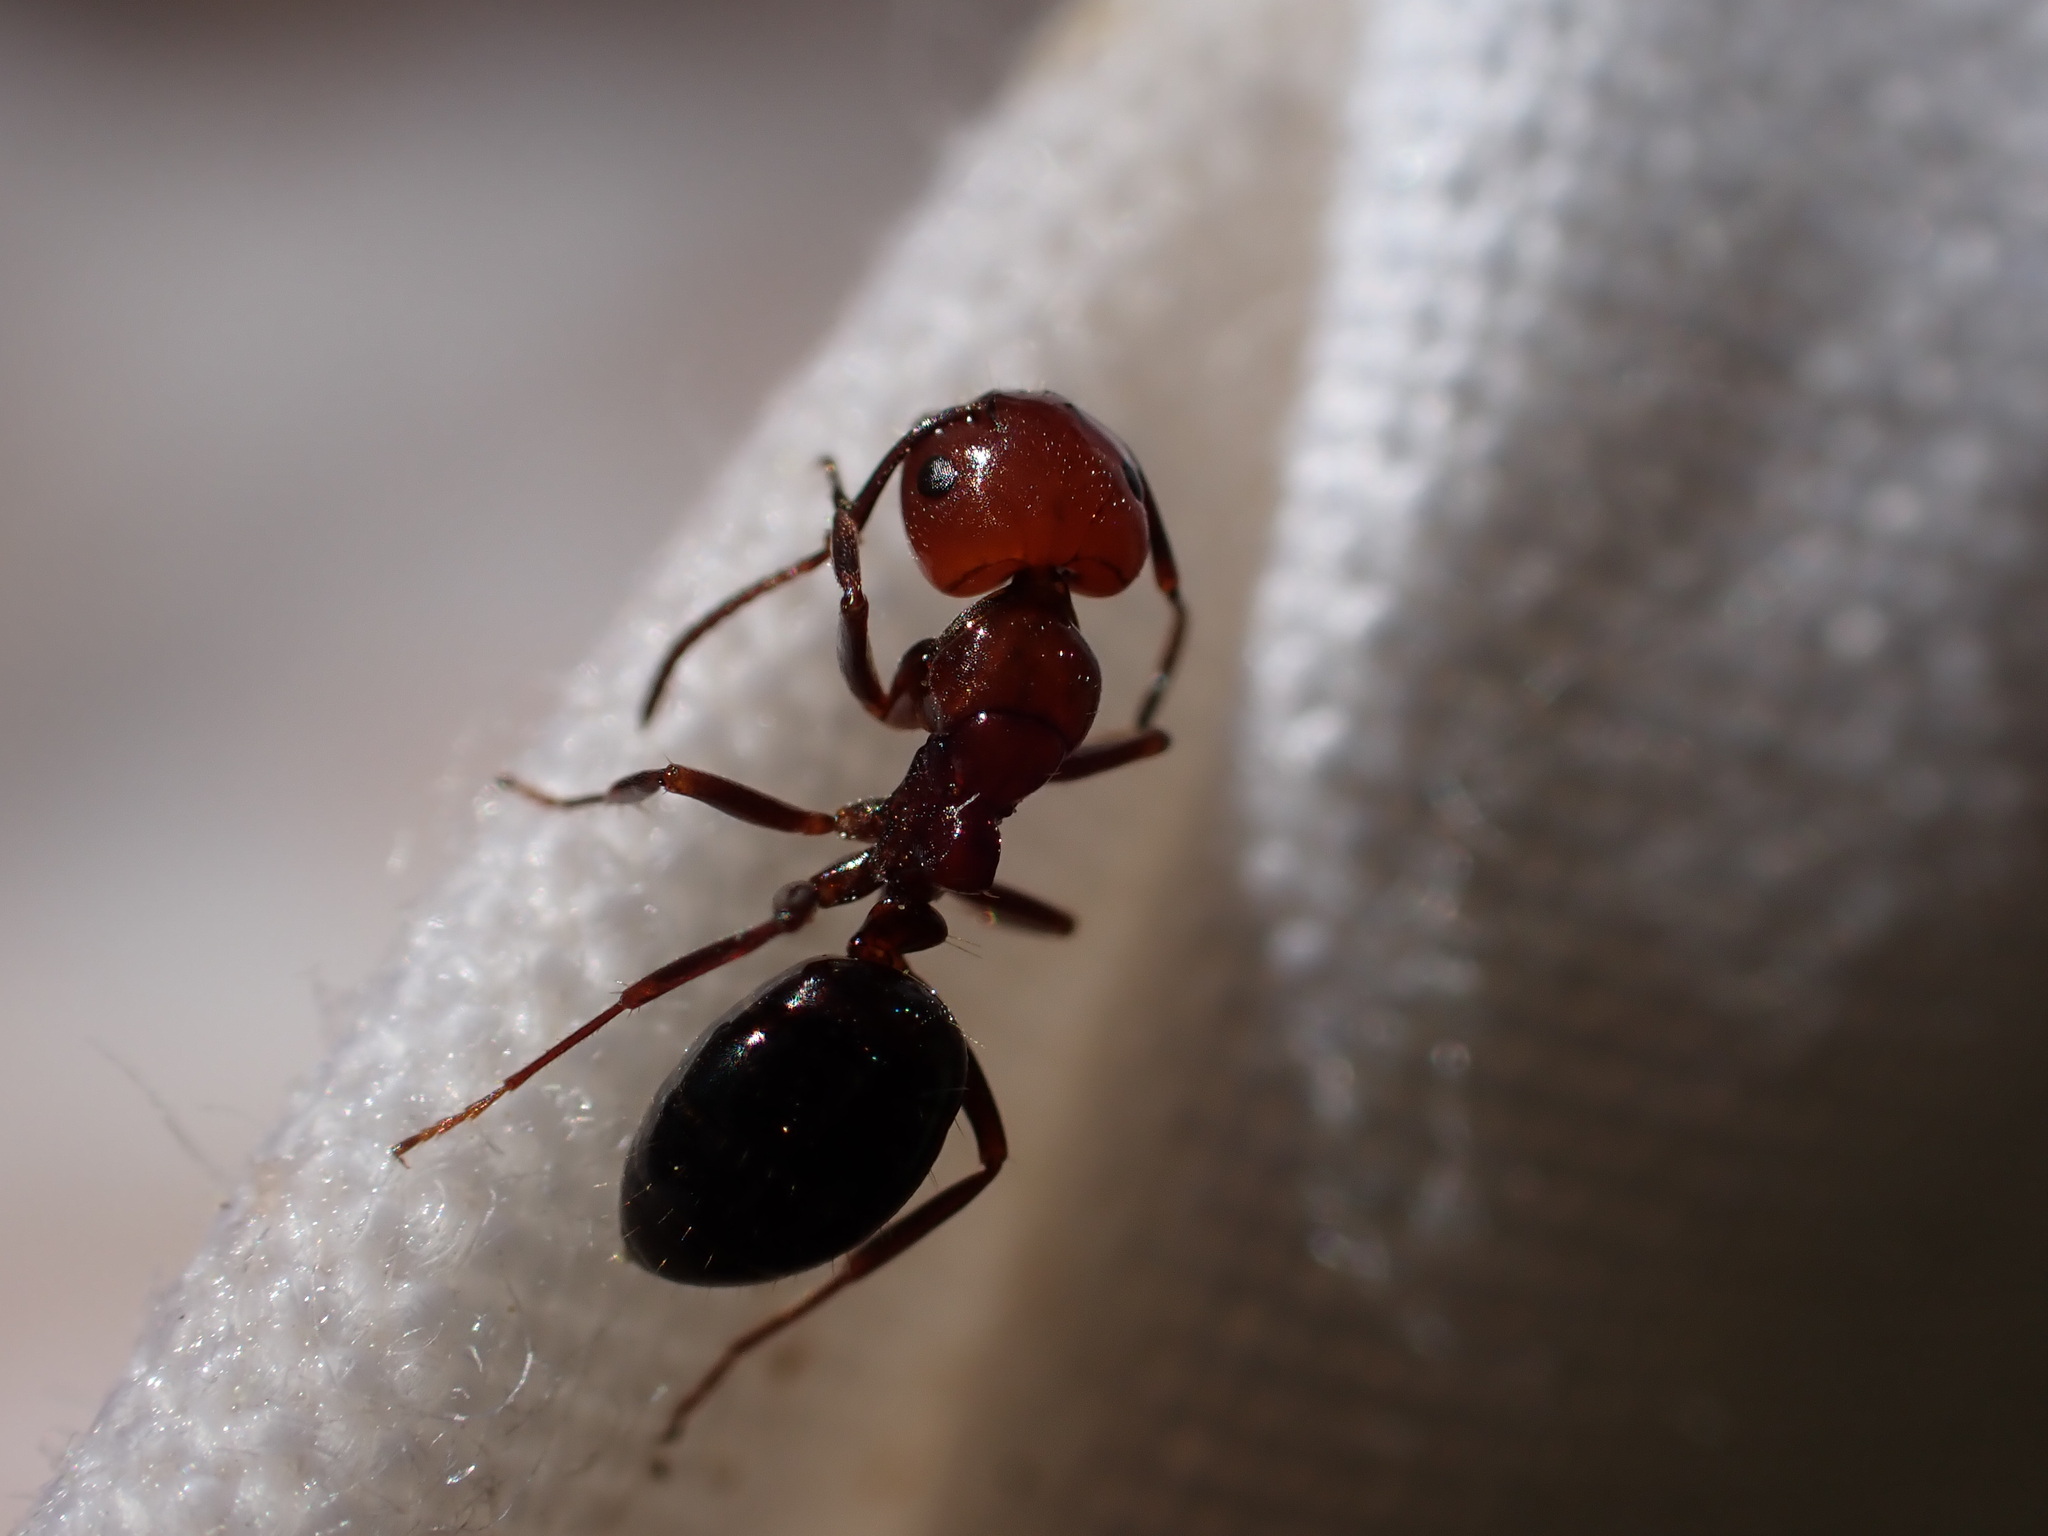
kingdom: Animalia
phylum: Arthropoda
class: Insecta
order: Hymenoptera
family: Formicidae
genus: Camponotus
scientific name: Camponotus lateralis
